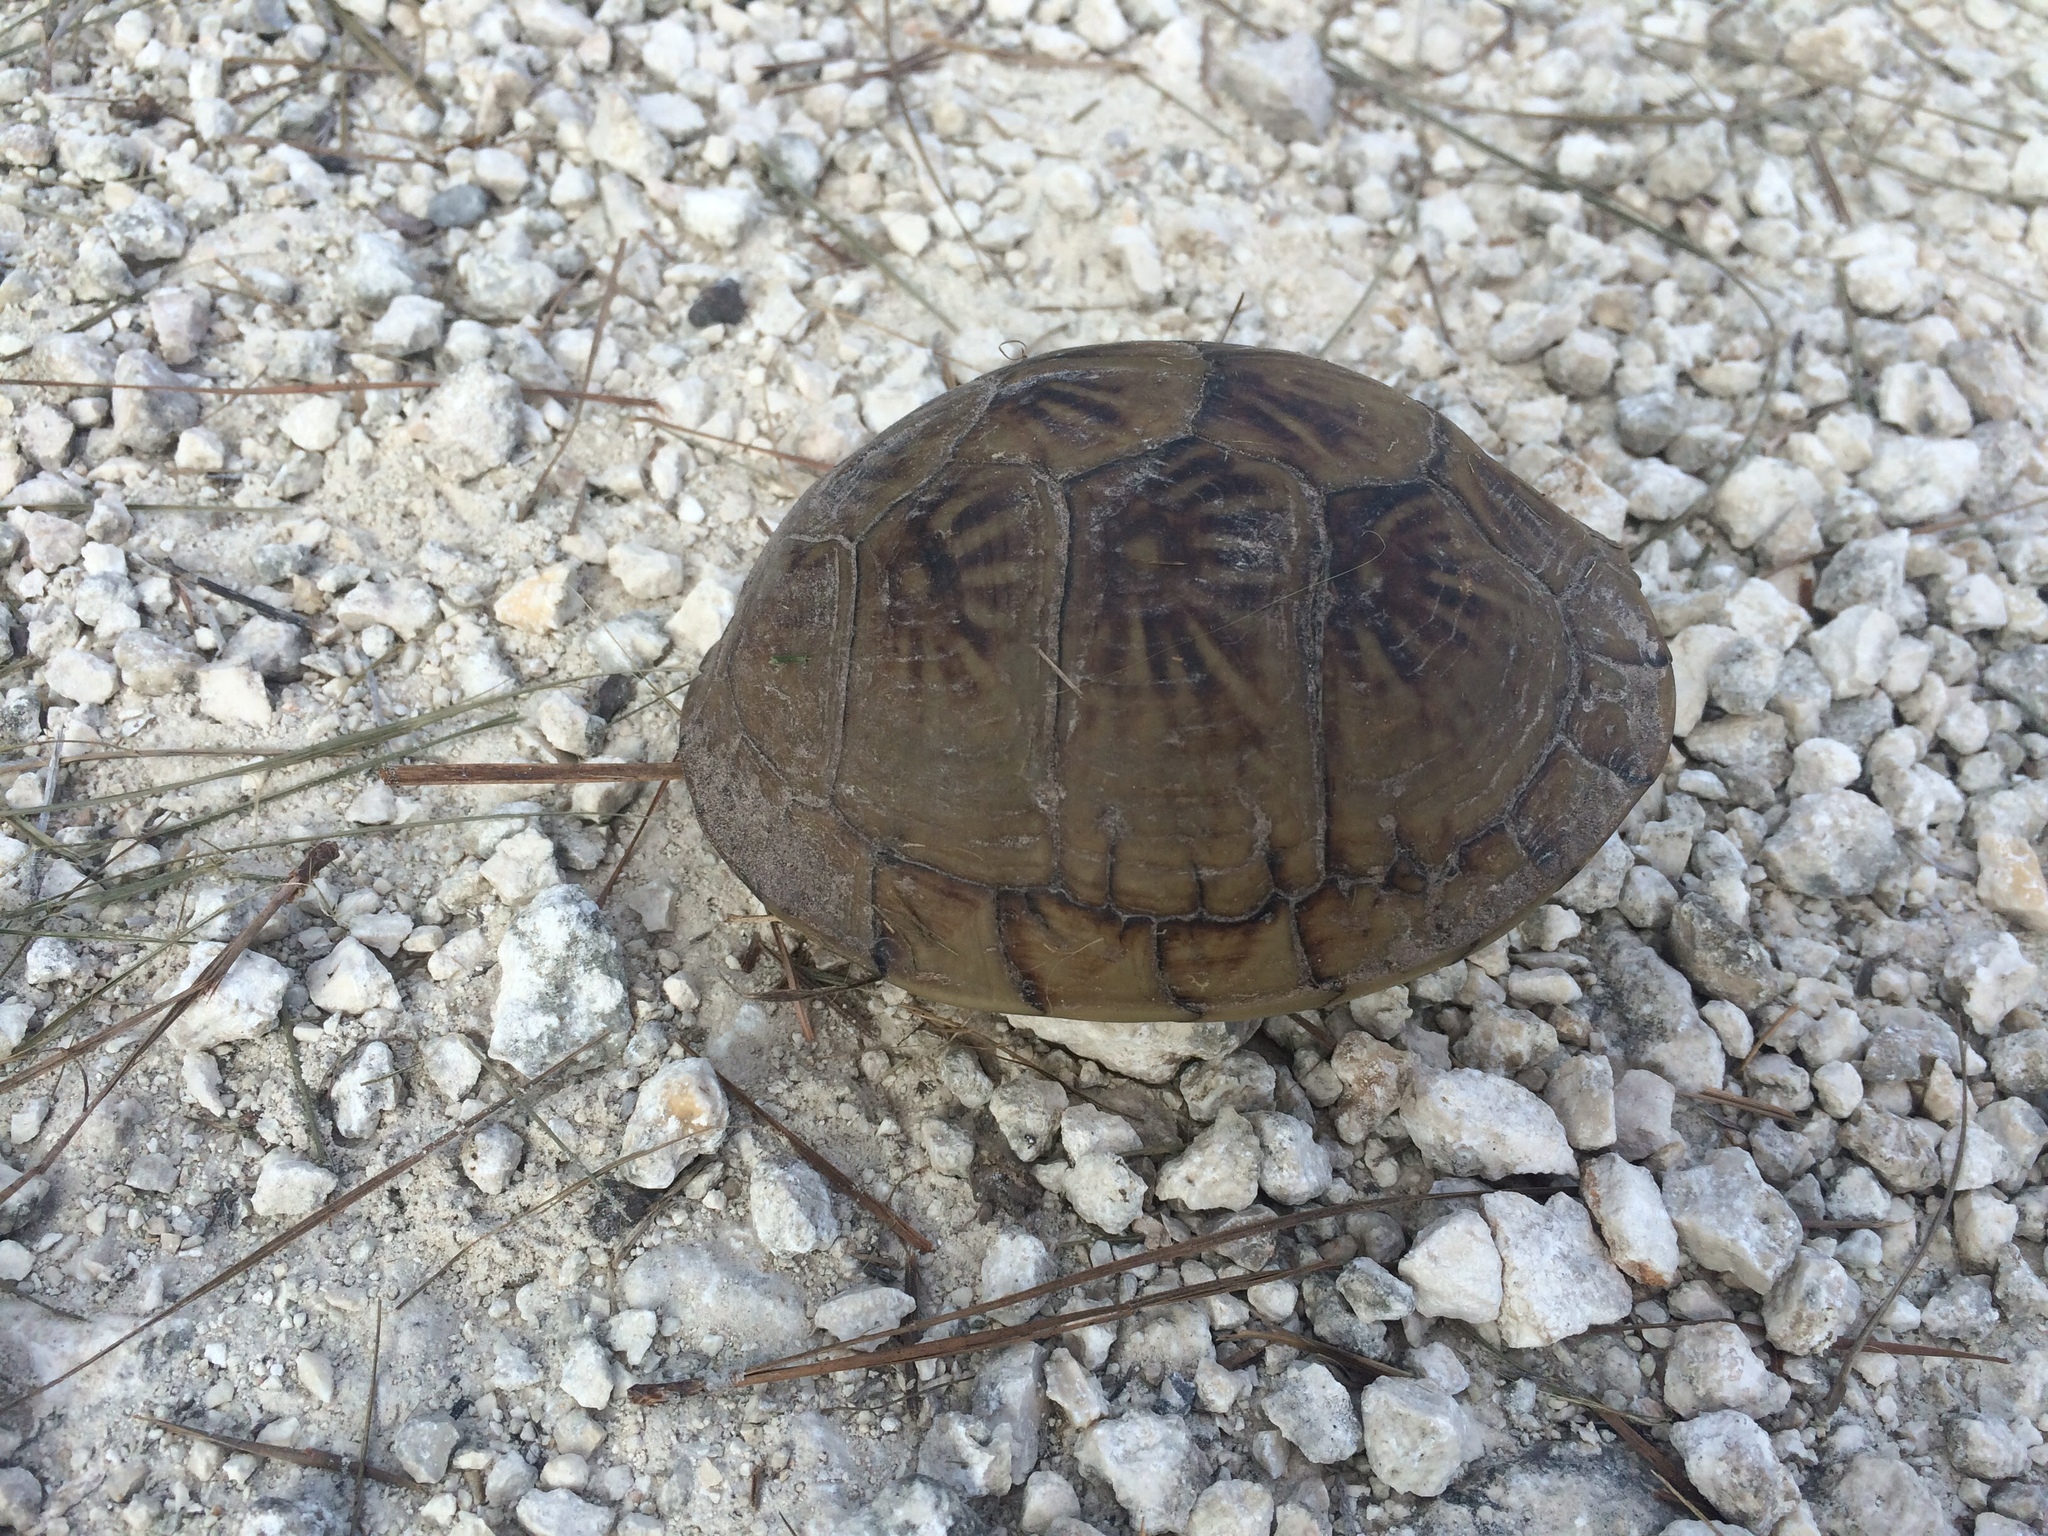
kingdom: Animalia
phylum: Chordata
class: Testudines
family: Emydidae
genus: Terrapene
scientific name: Terrapene carolina
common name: Common box turtle
